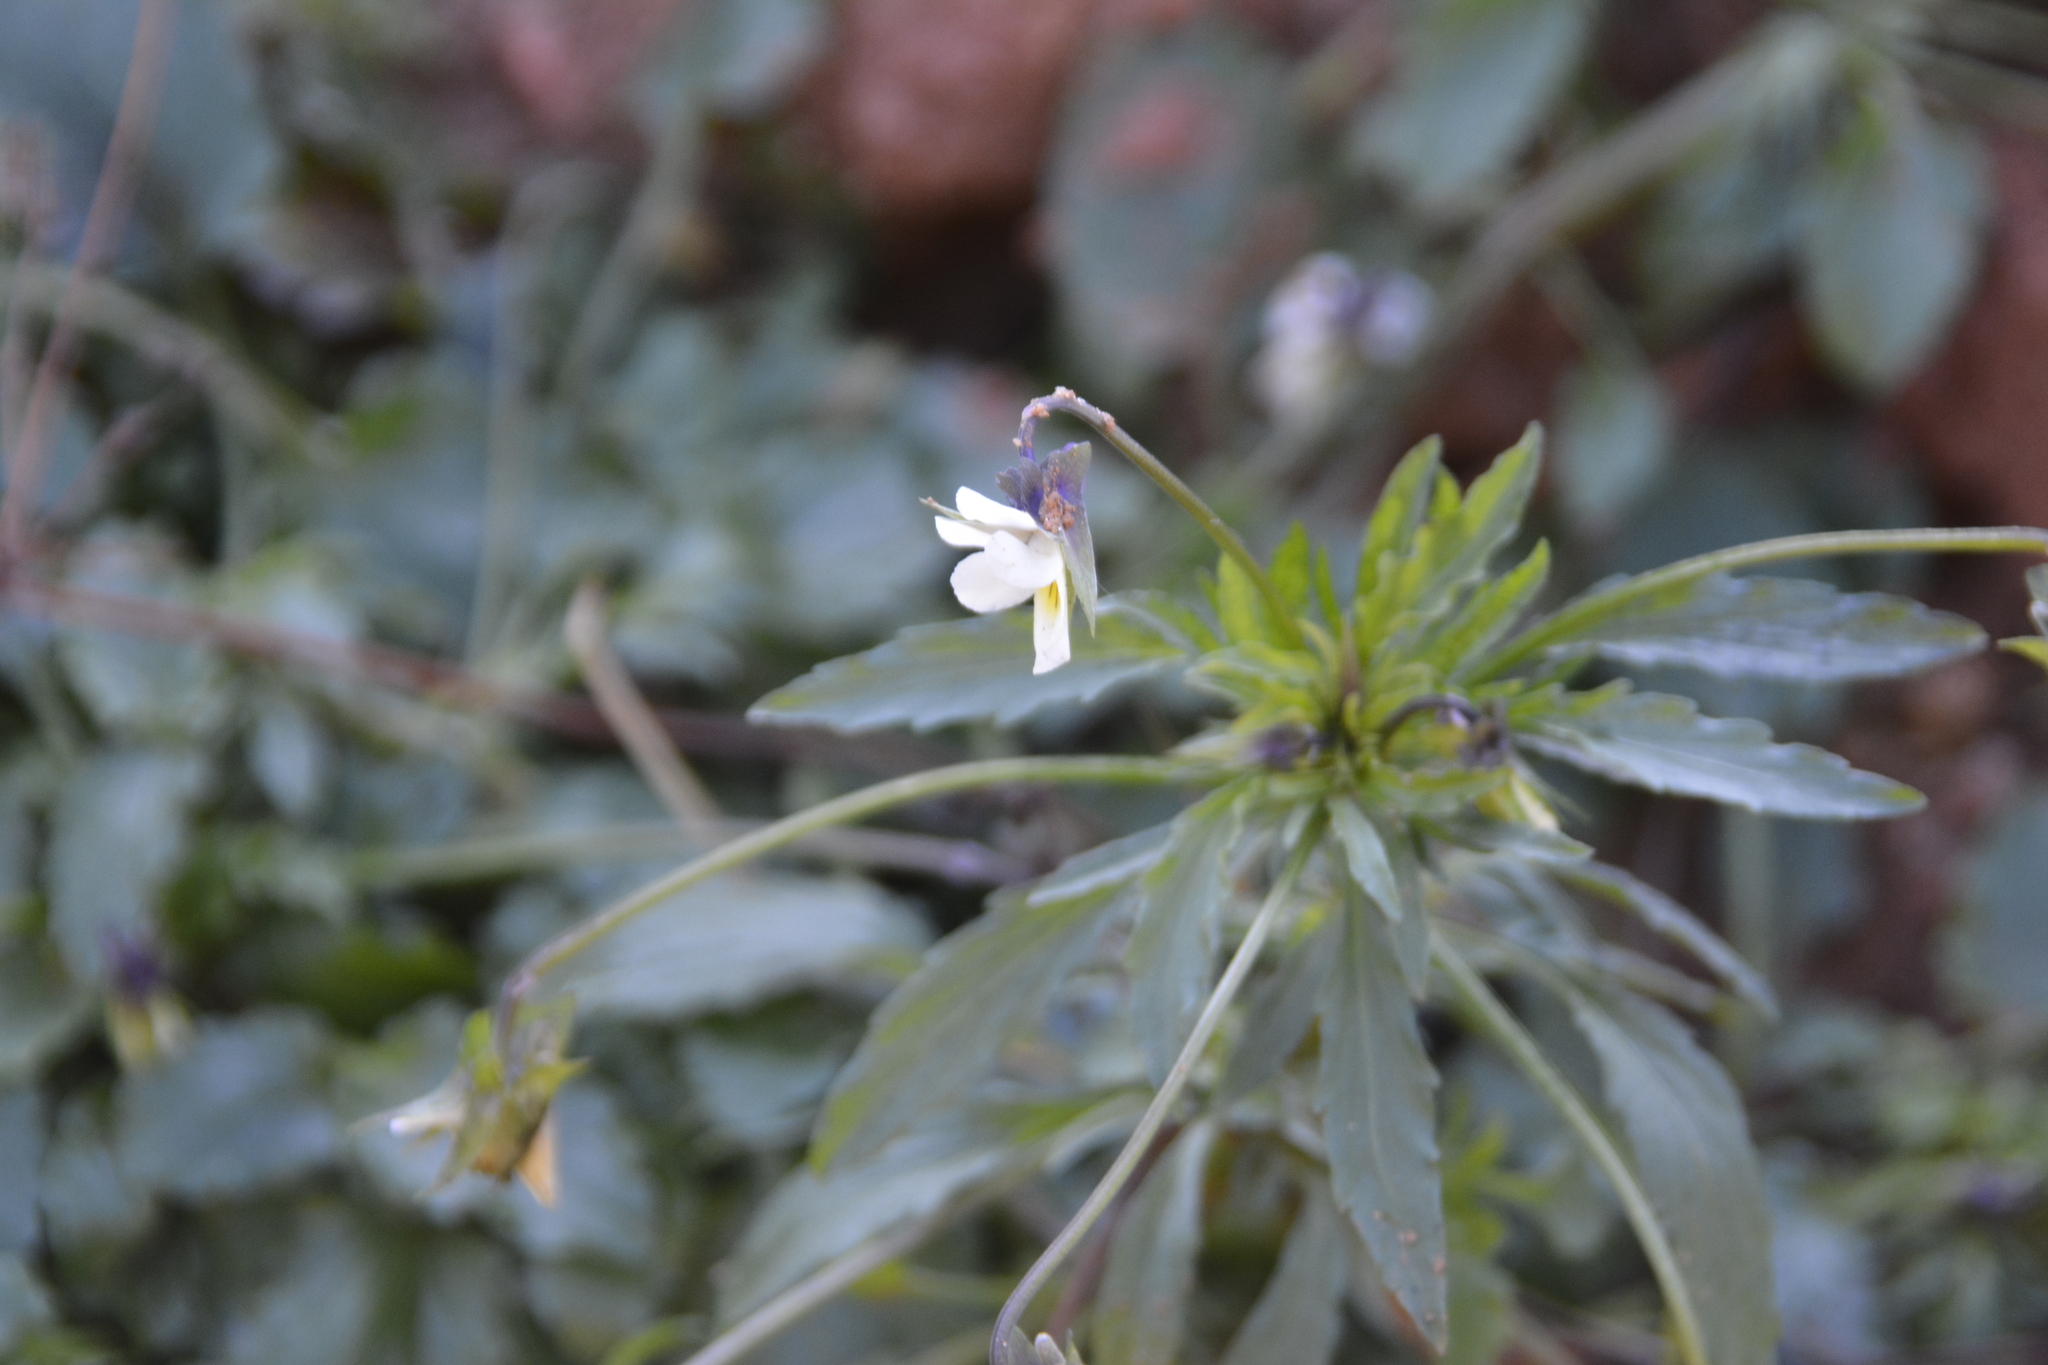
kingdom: Plantae
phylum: Tracheophyta
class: Magnoliopsida
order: Malpighiales
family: Violaceae
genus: Viola
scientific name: Viola arvensis
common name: Field pansy
